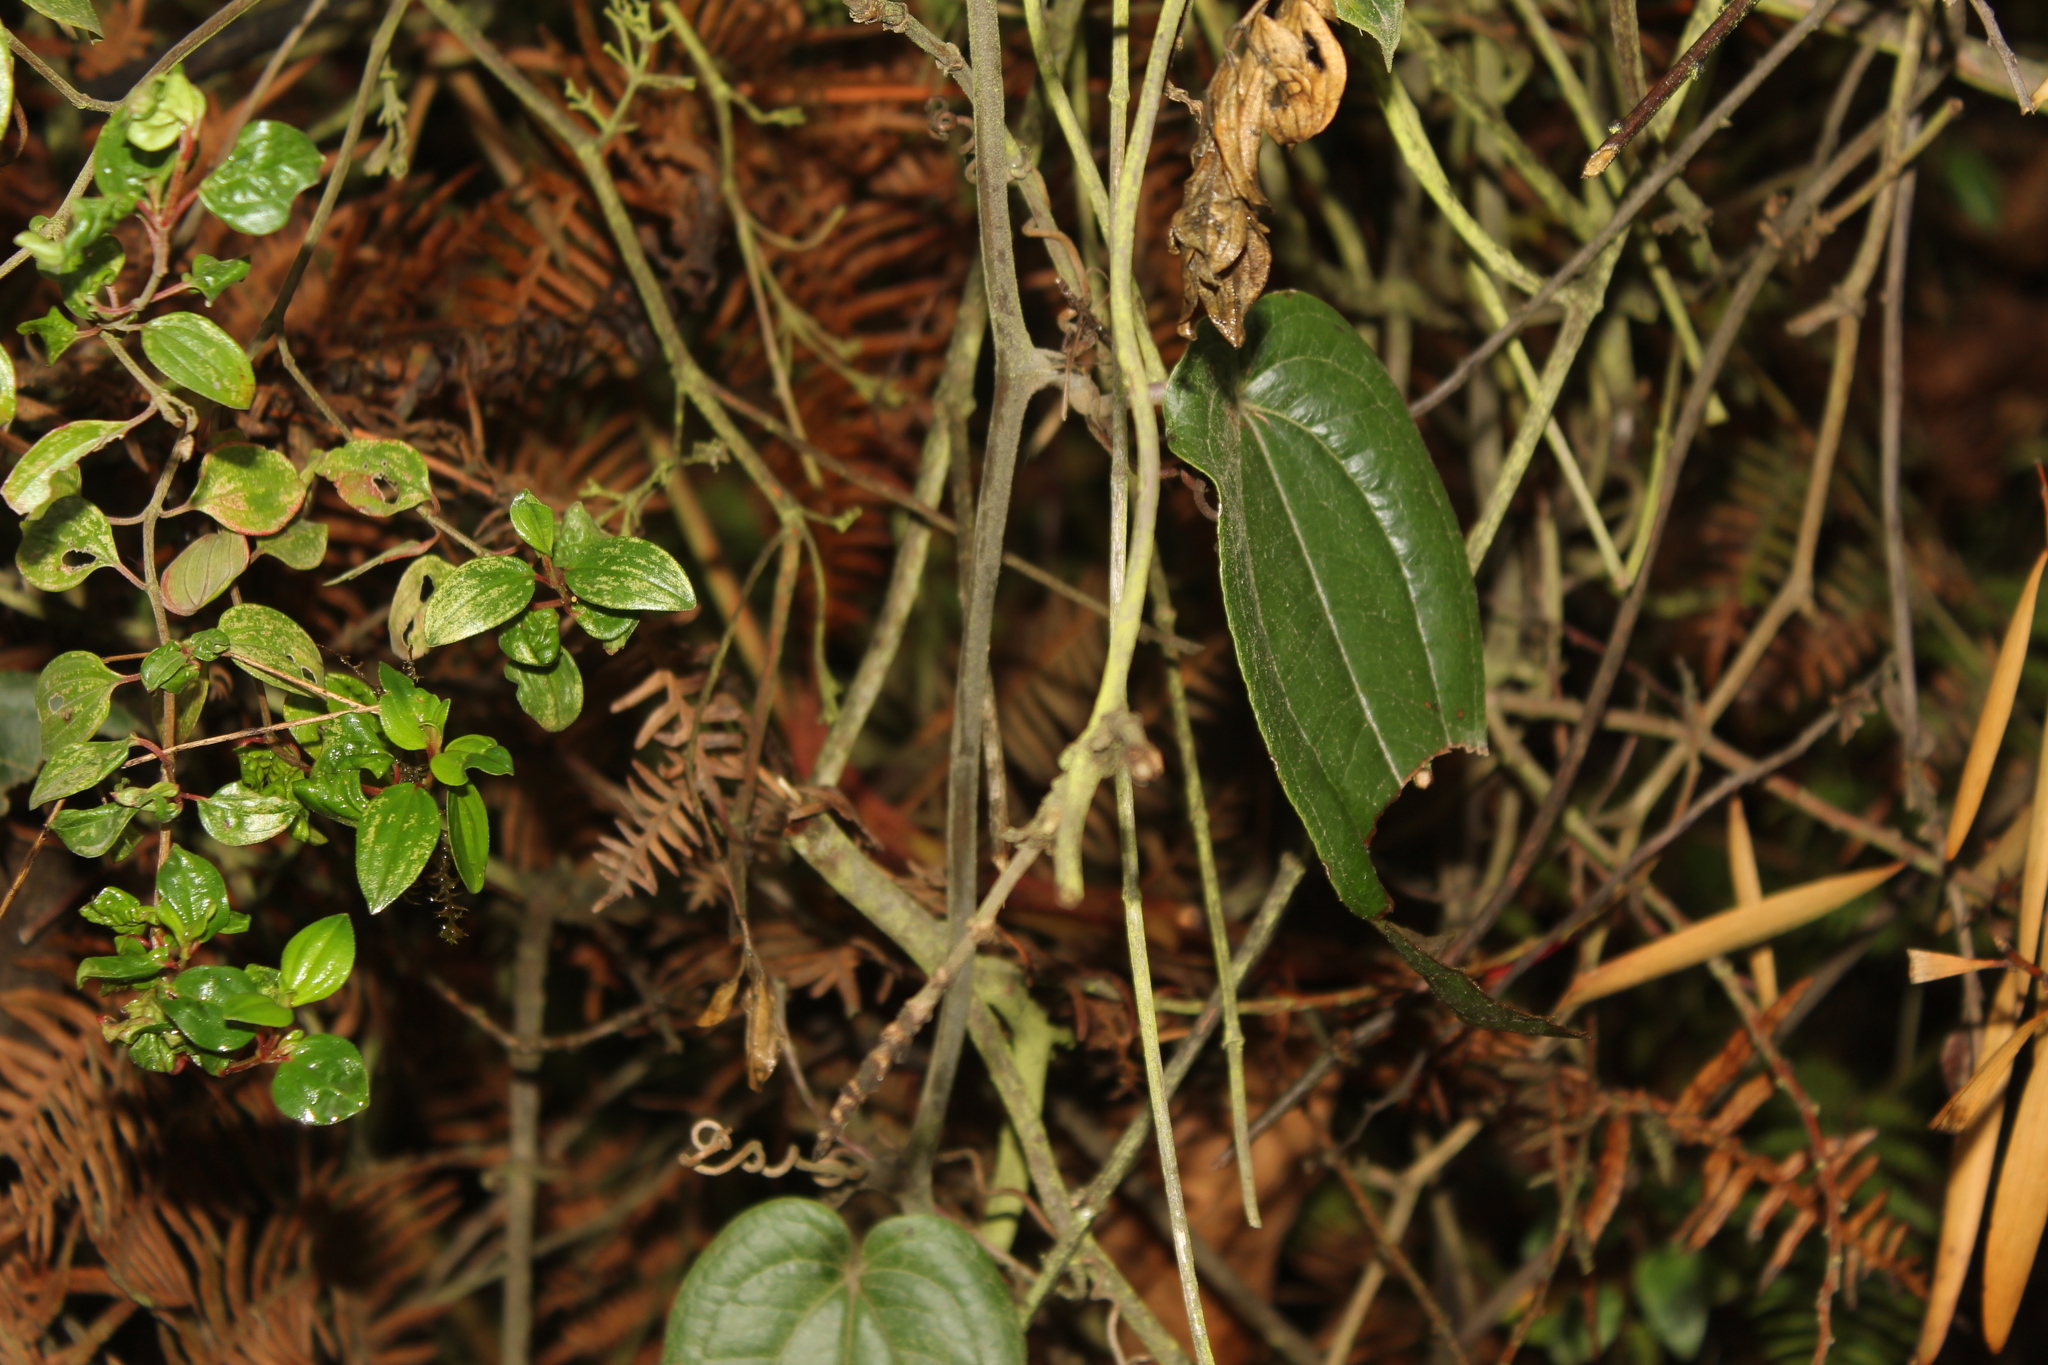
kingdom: Plantae
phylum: Tracheophyta
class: Liliopsida
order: Liliales
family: Smilacaceae
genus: Smilax
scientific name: Smilax tomentosa
